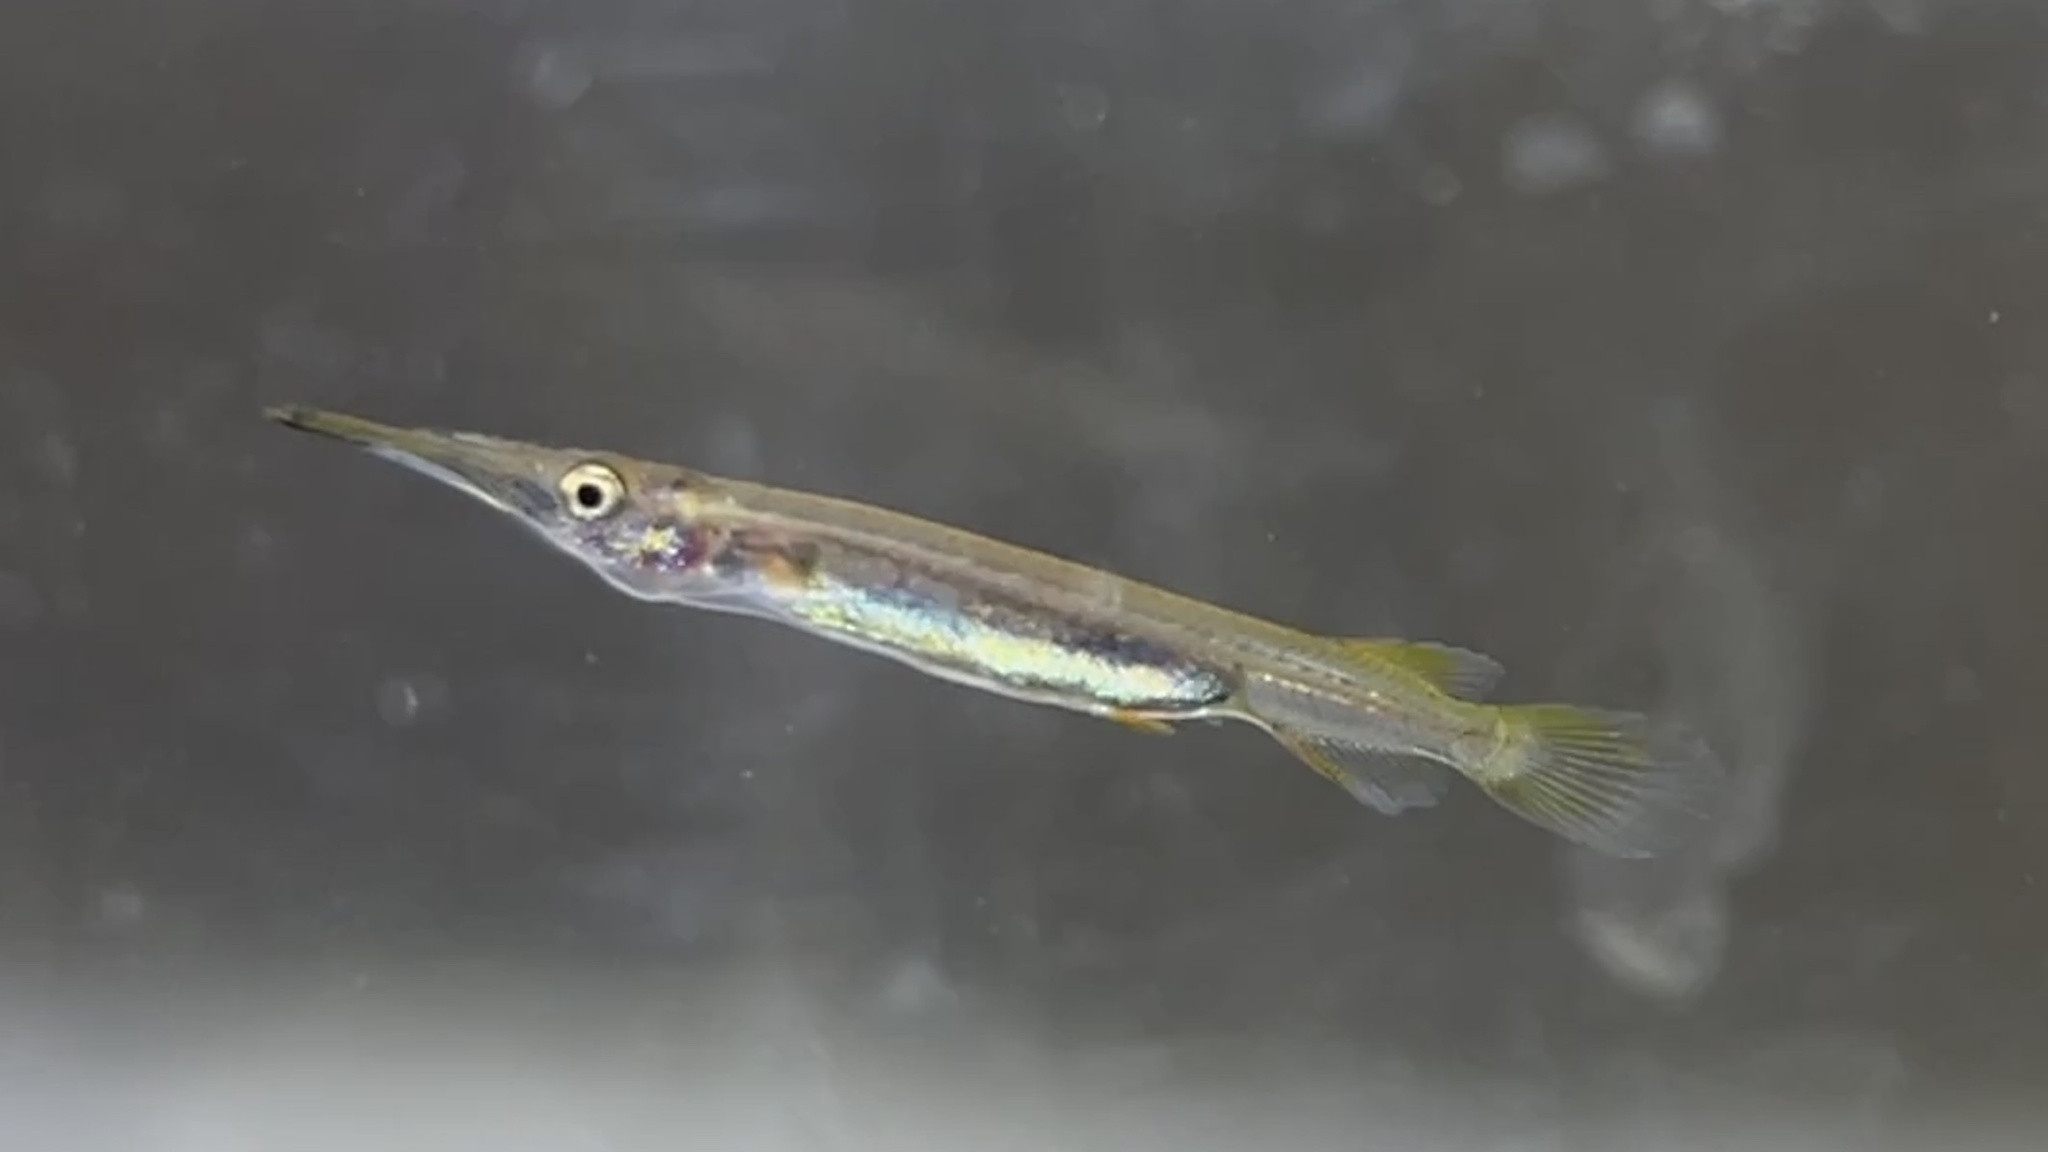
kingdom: Animalia
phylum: Chordata
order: Beloniformes
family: Zenarchopteridae
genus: Dermogenys
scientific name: Dermogenys siamensis
